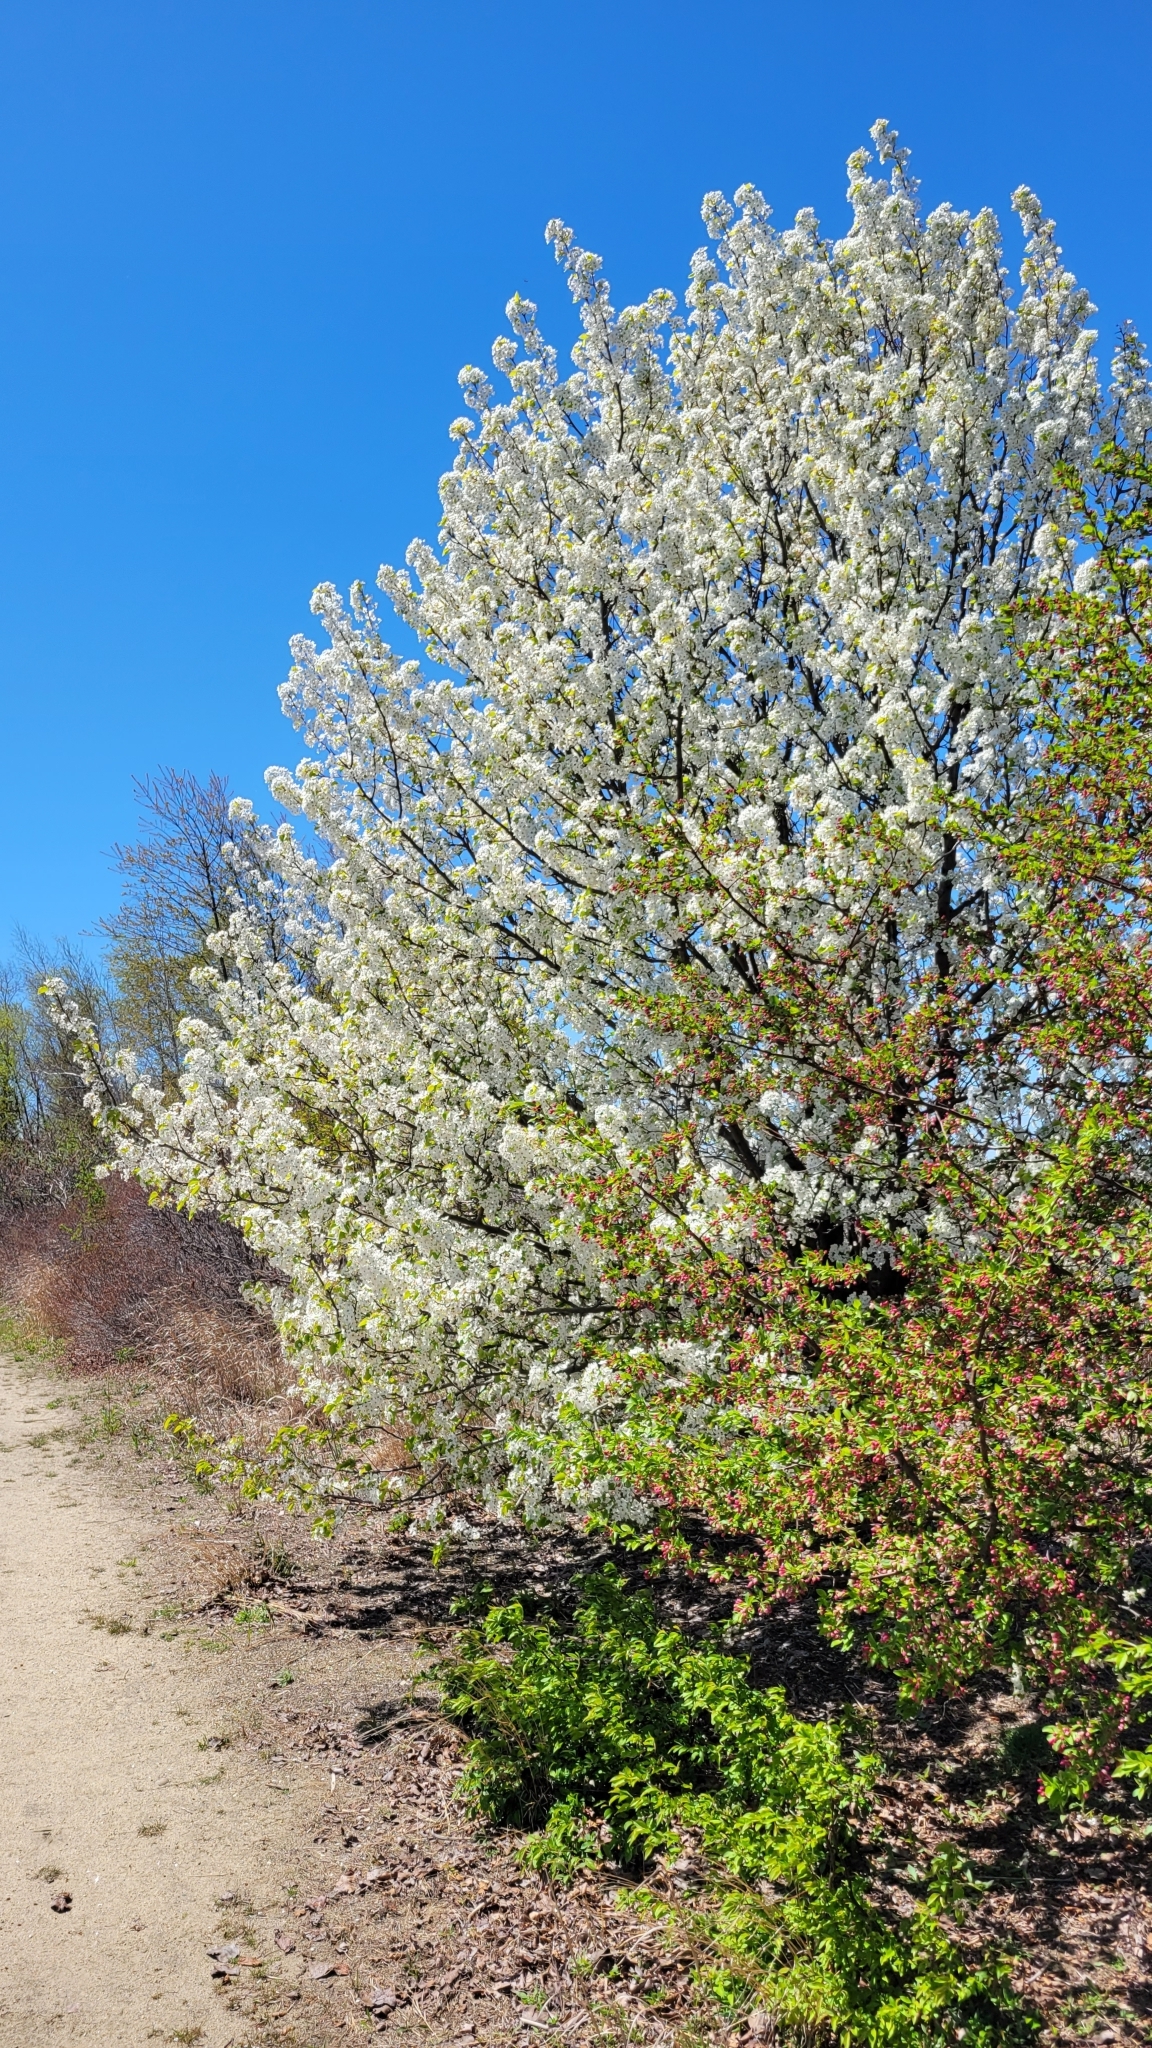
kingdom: Plantae
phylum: Tracheophyta
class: Magnoliopsida
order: Rosales
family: Rosaceae
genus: Pyrus
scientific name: Pyrus calleryana
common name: Callery pear
